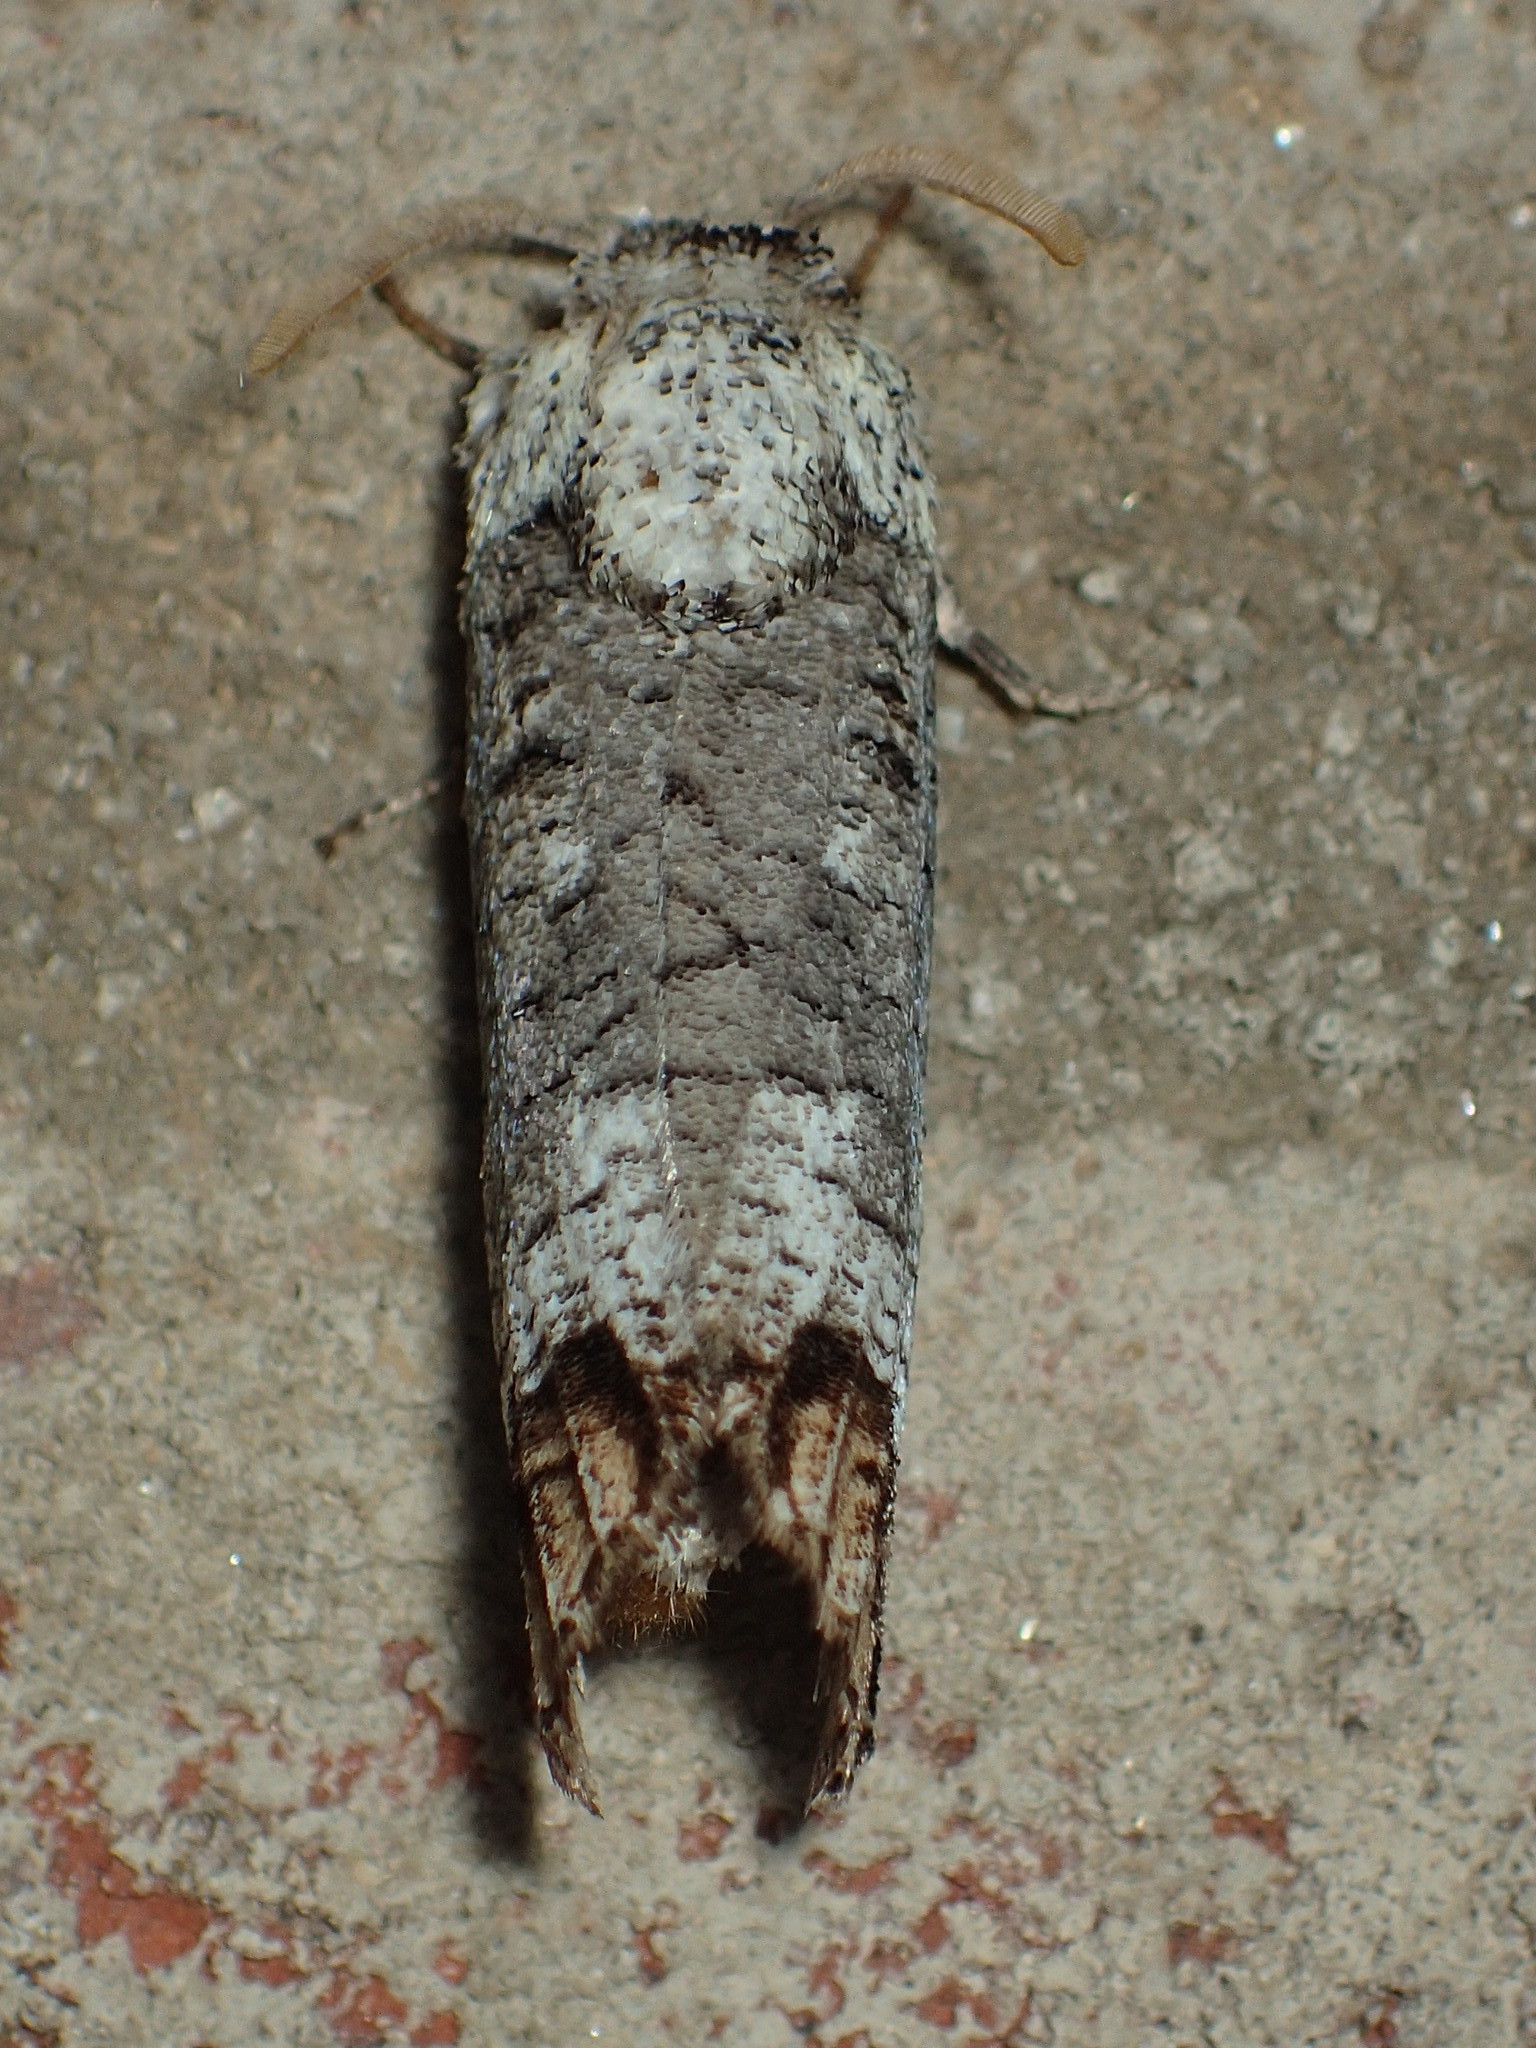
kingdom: Animalia
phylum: Arthropoda
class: Insecta
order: Lepidoptera
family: Cossidae
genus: Cossula
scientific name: Cossula magnifica
